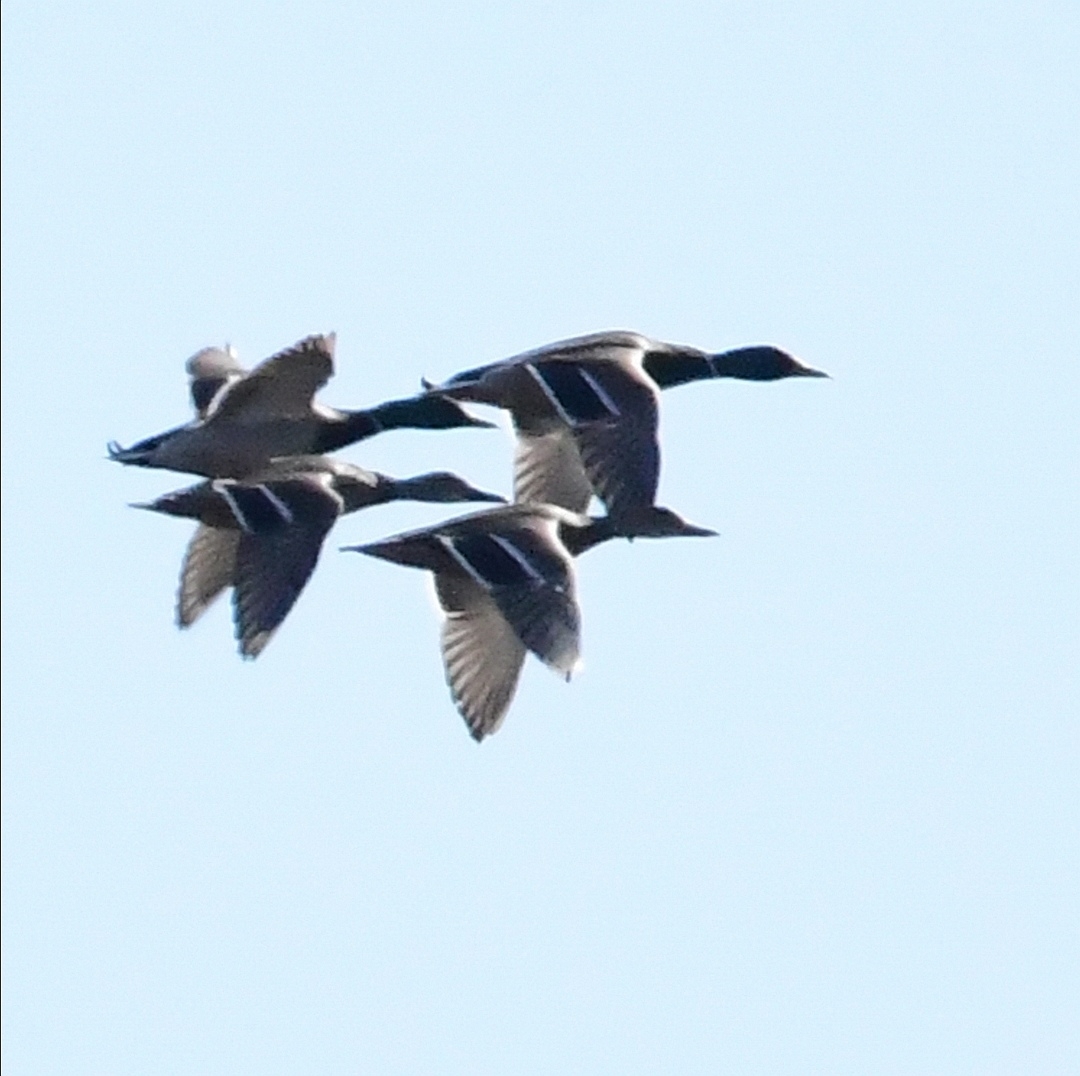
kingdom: Animalia
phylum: Chordata
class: Aves
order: Anseriformes
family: Anatidae
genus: Anas
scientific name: Anas platyrhynchos
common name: Mallard
